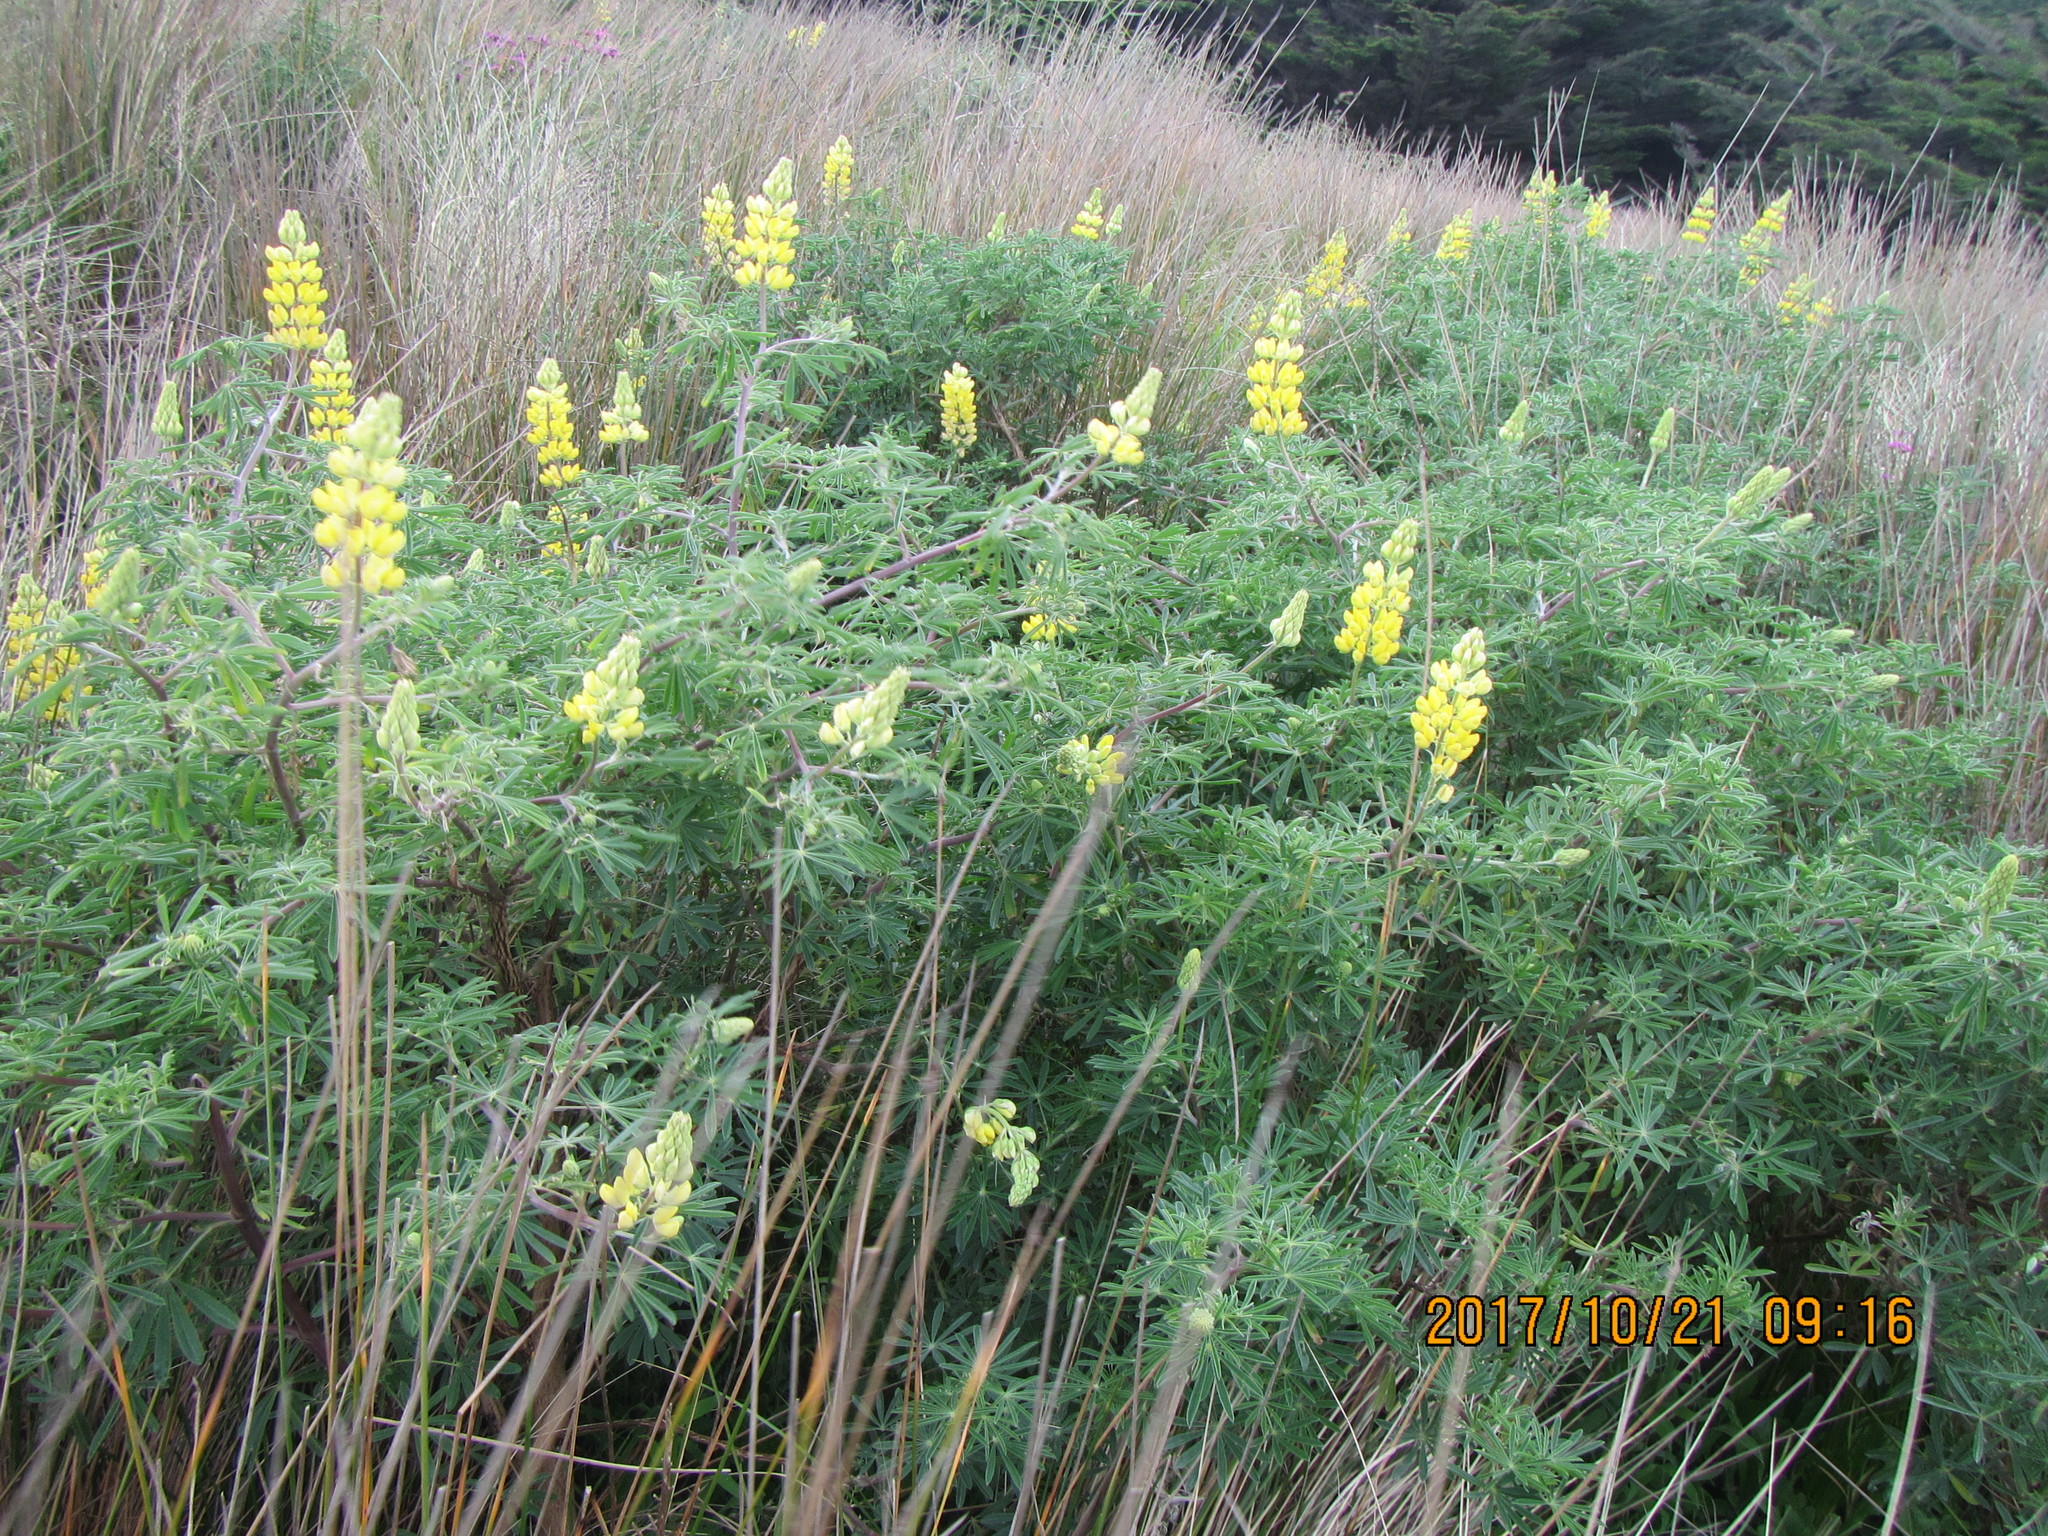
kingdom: Plantae
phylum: Tracheophyta
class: Magnoliopsida
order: Fabales
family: Fabaceae
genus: Lupinus
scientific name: Lupinus arboreus
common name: Yellow bush lupine
